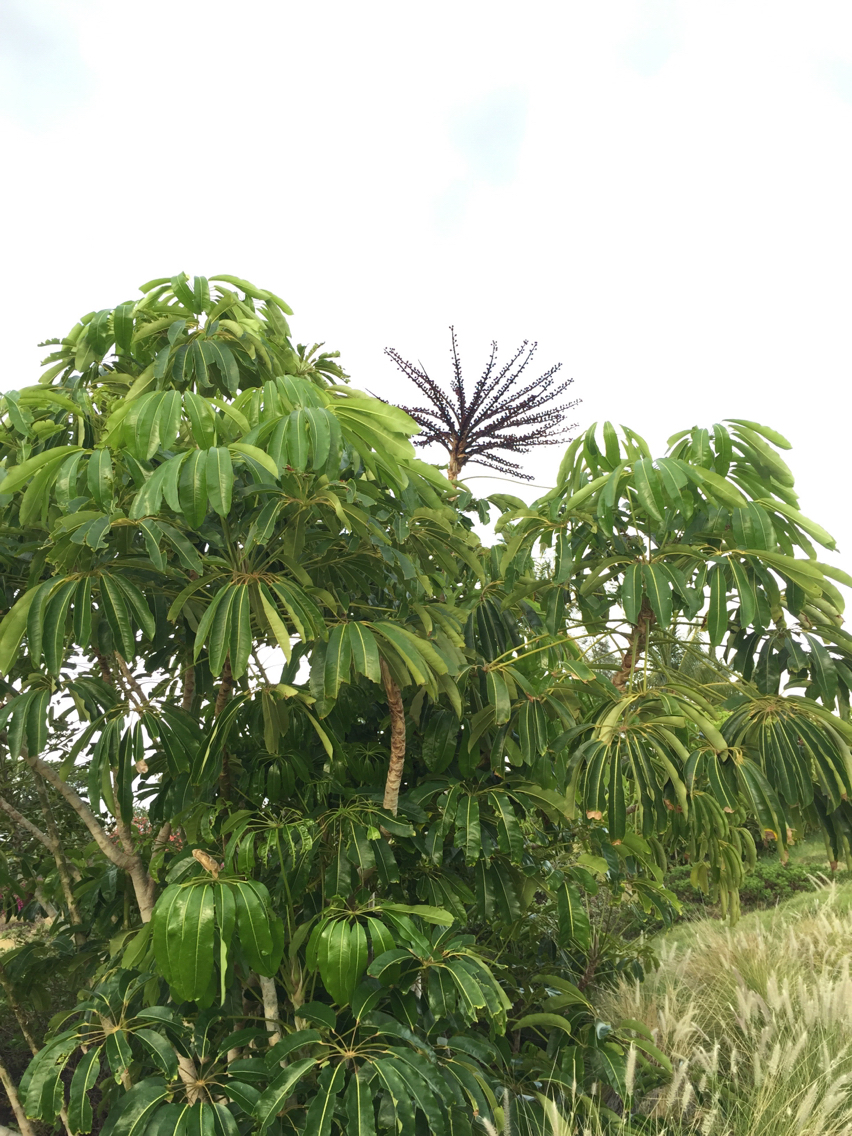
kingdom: Plantae
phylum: Tracheophyta
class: Magnoliopsida
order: Apiales
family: Araliaceae
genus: Heptapleurum
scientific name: Heptapleurum actinophyllum
